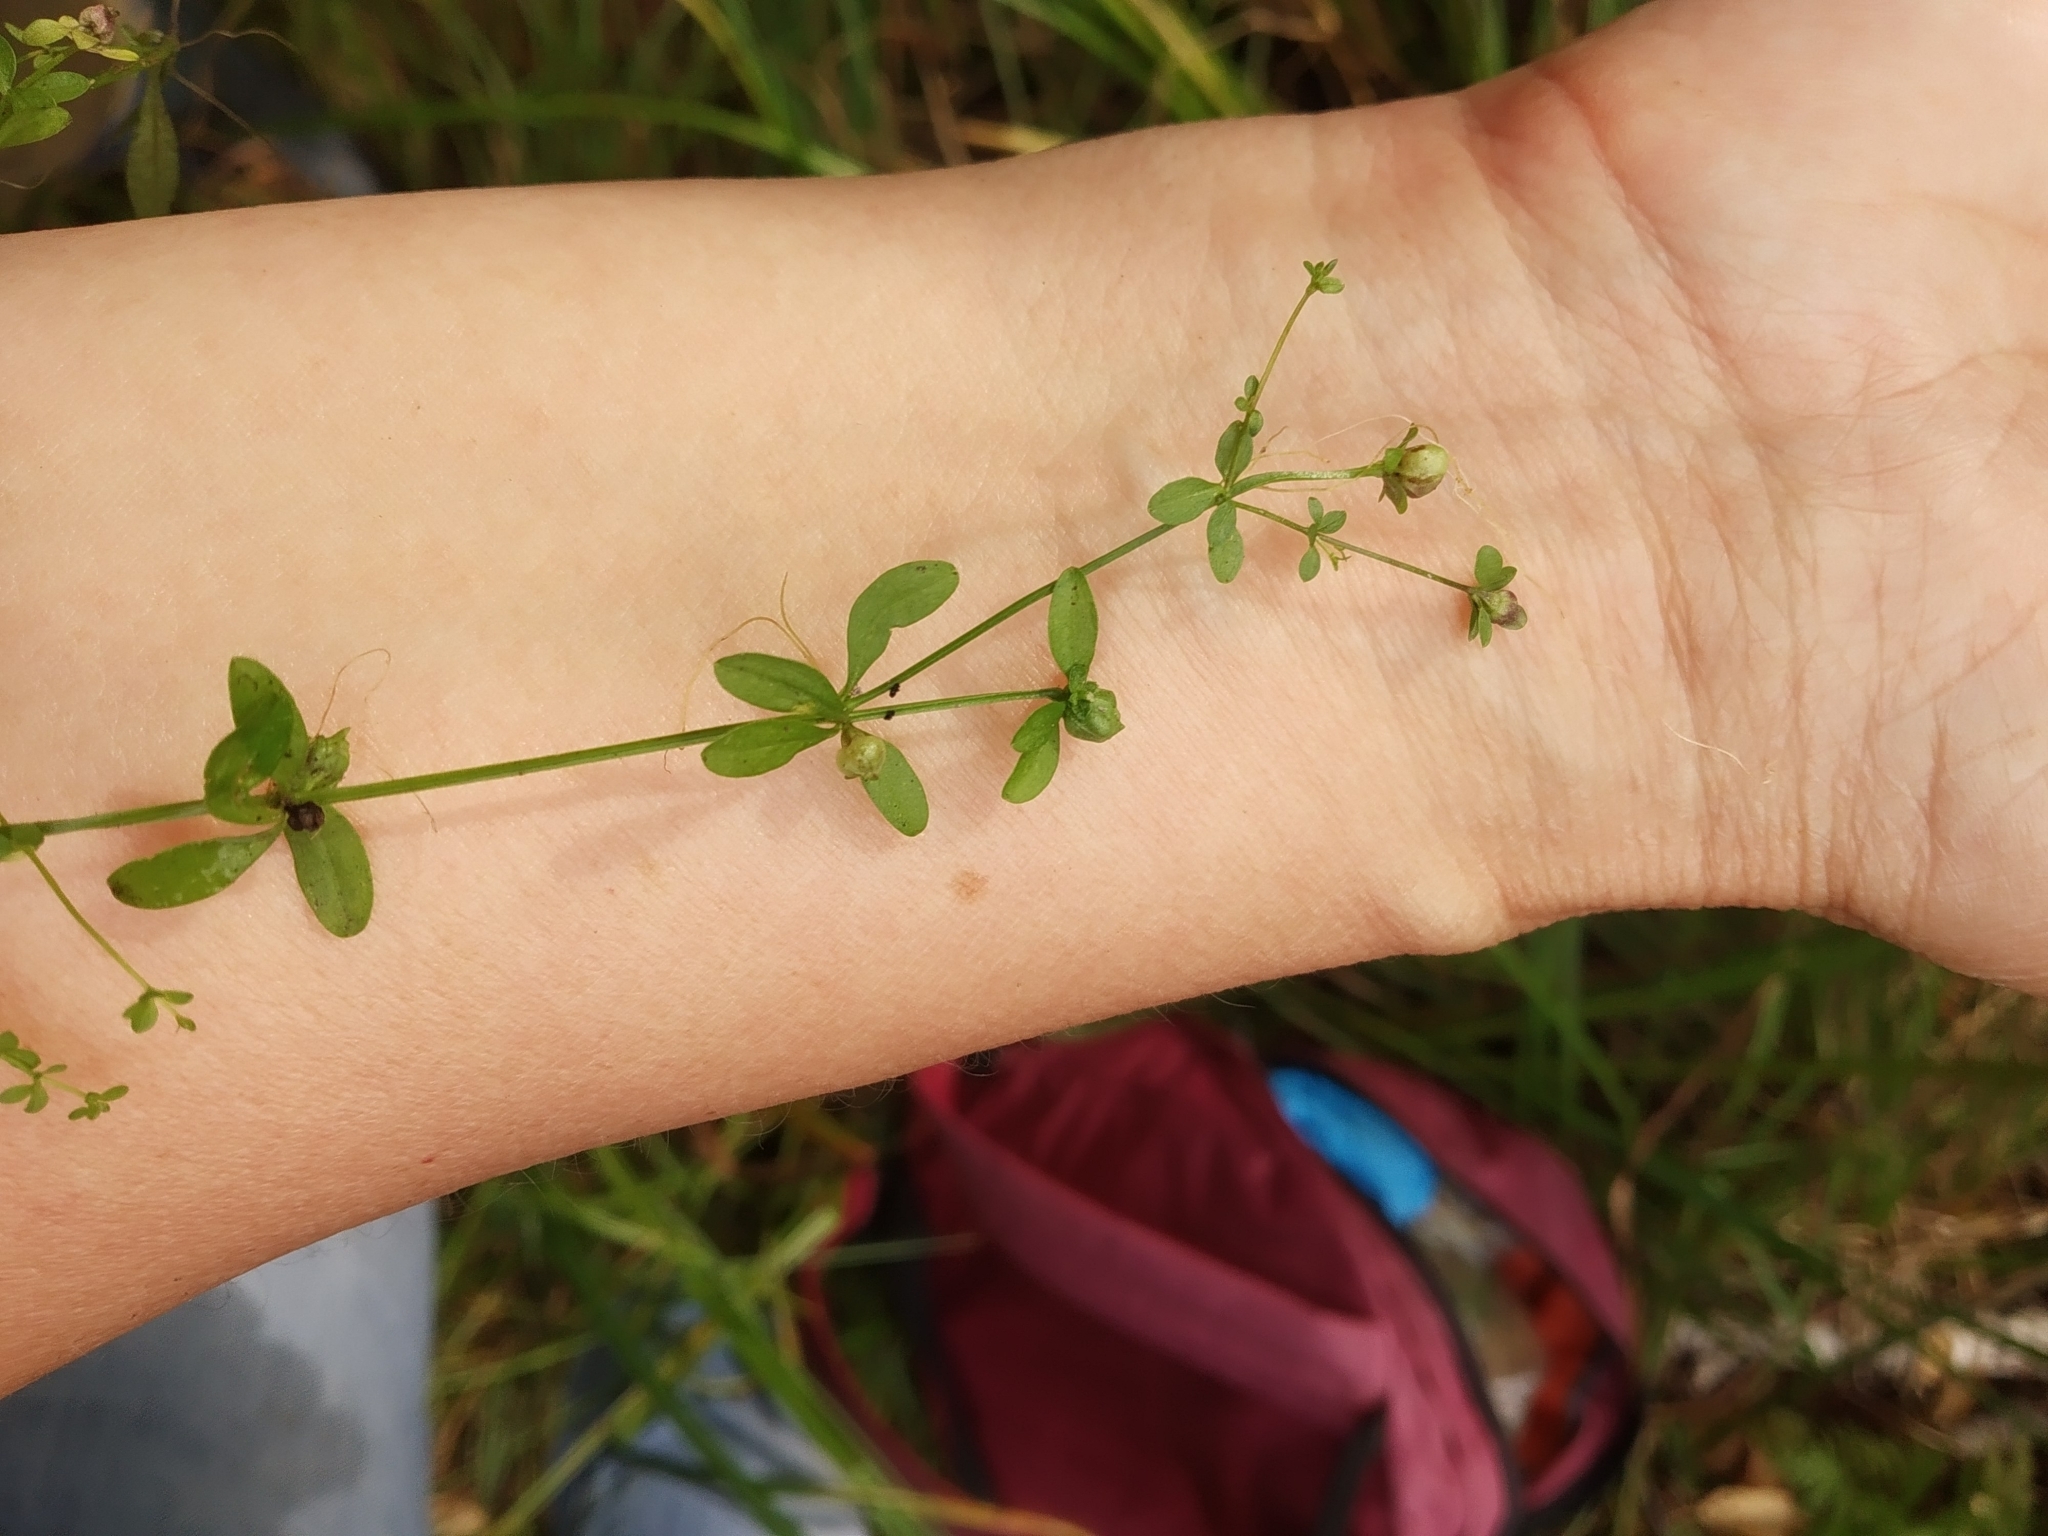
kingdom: Plantae
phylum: Tracheophyta
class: Magnoliopsida
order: Gentianales
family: Rubiaceae
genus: Galium
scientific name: Galium palustre
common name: Common marsh-bedstraw
